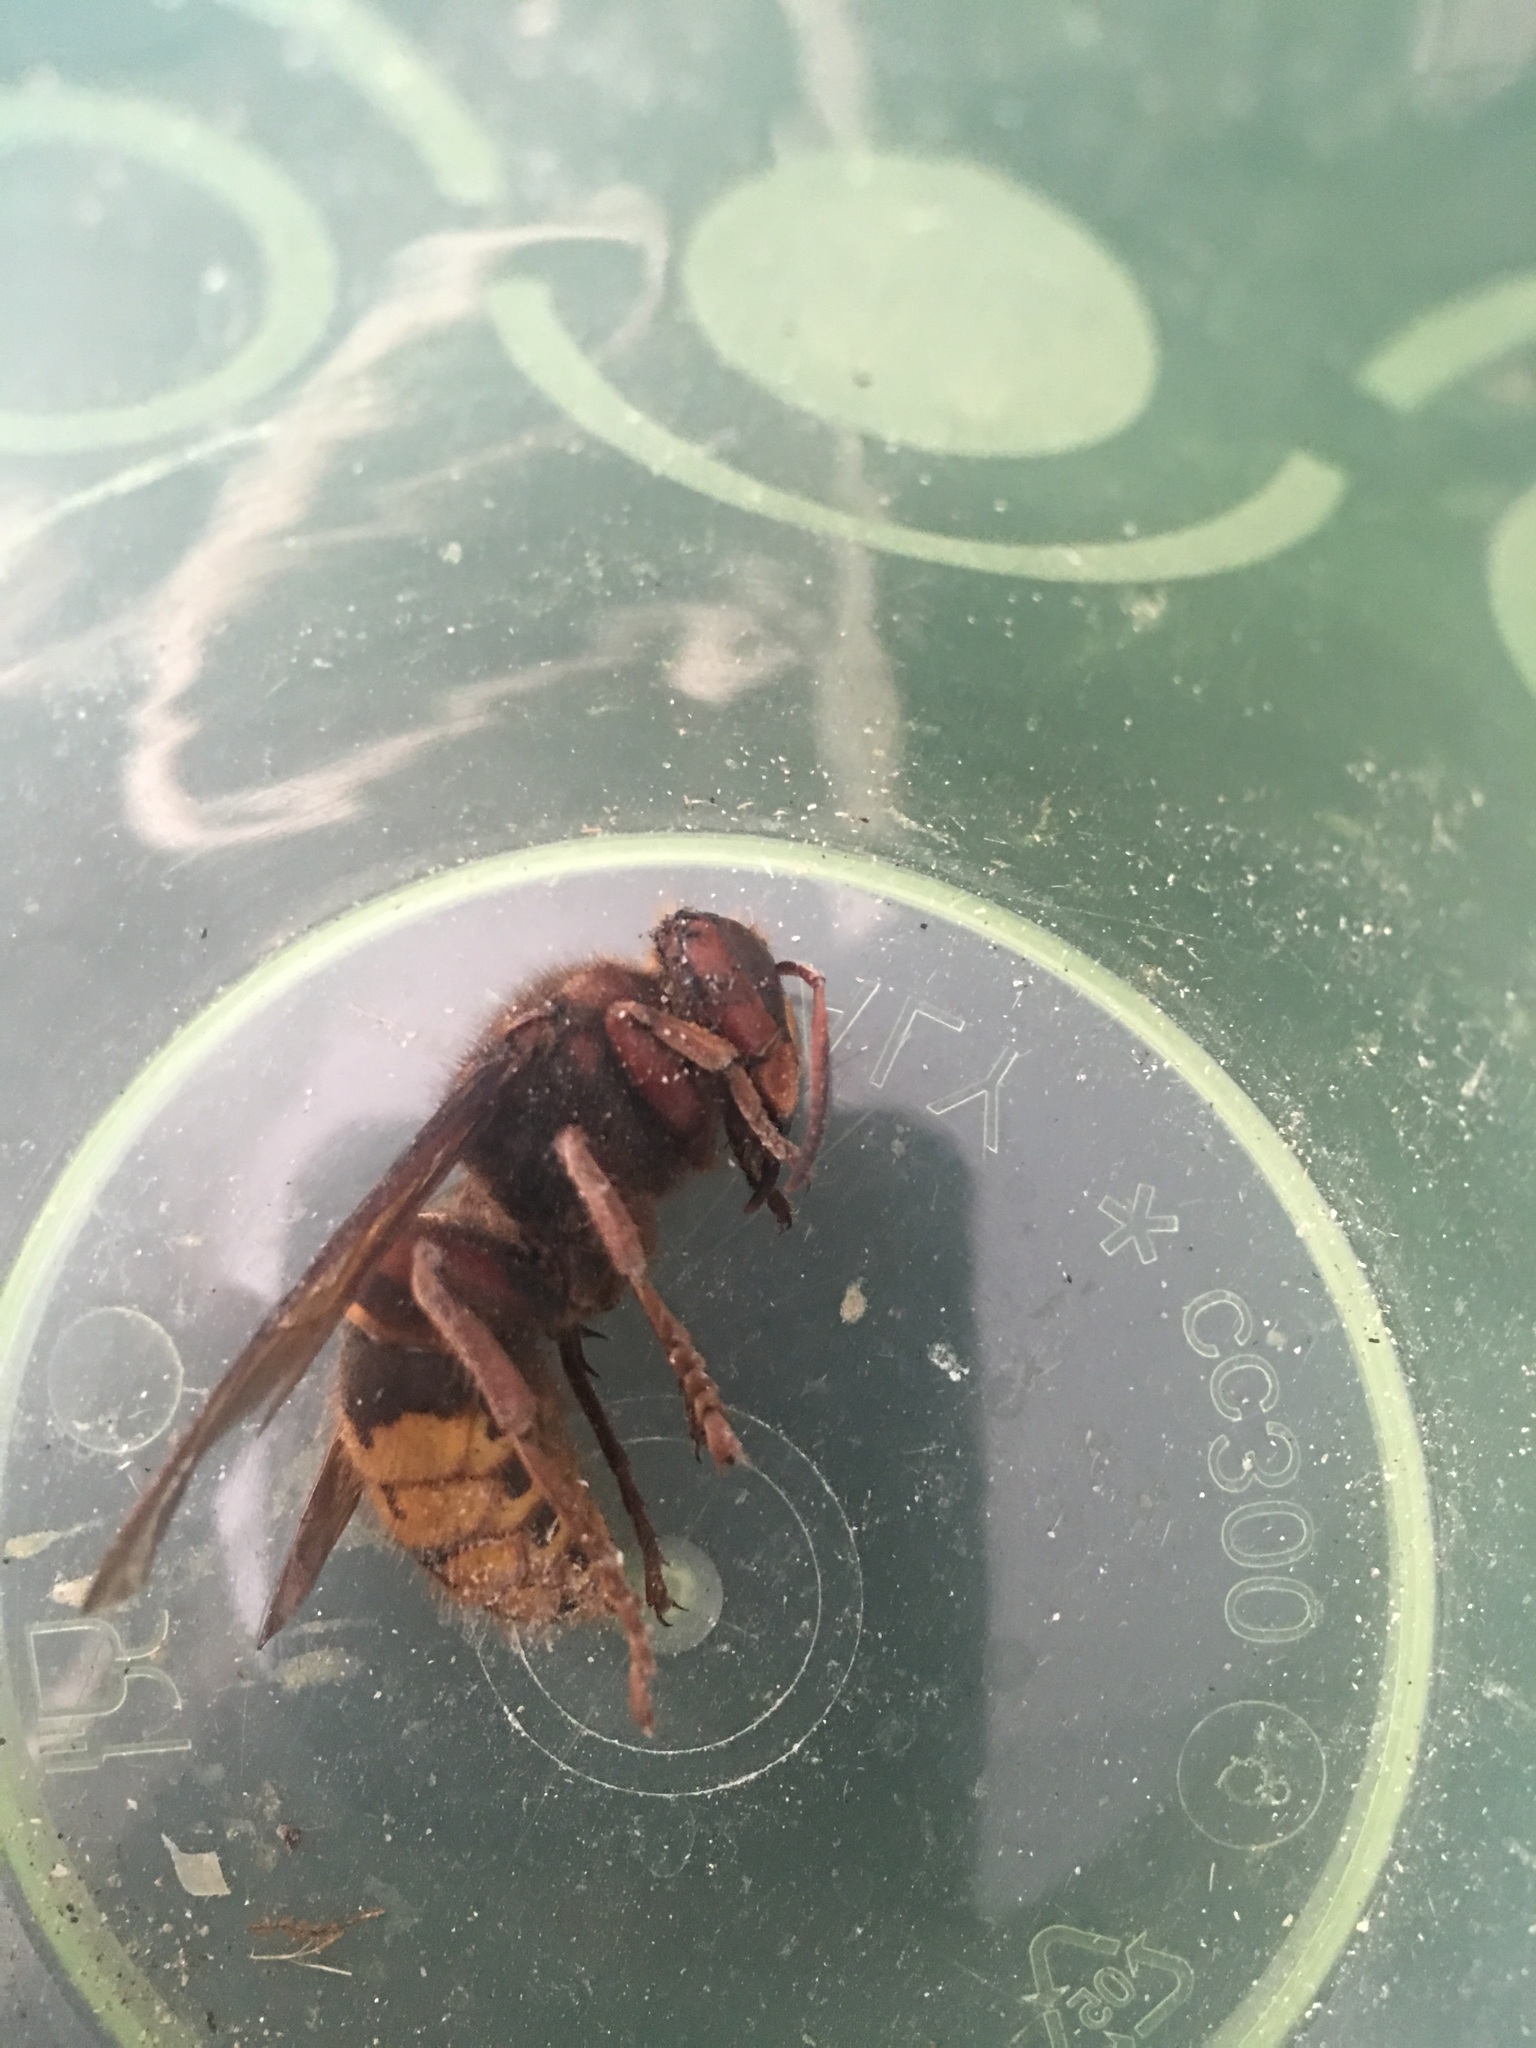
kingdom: Animalia
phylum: Arthropoda
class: Insecta
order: Hymenoptera
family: Vespidae
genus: Vespa
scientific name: Vespa crabro
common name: Hornet
